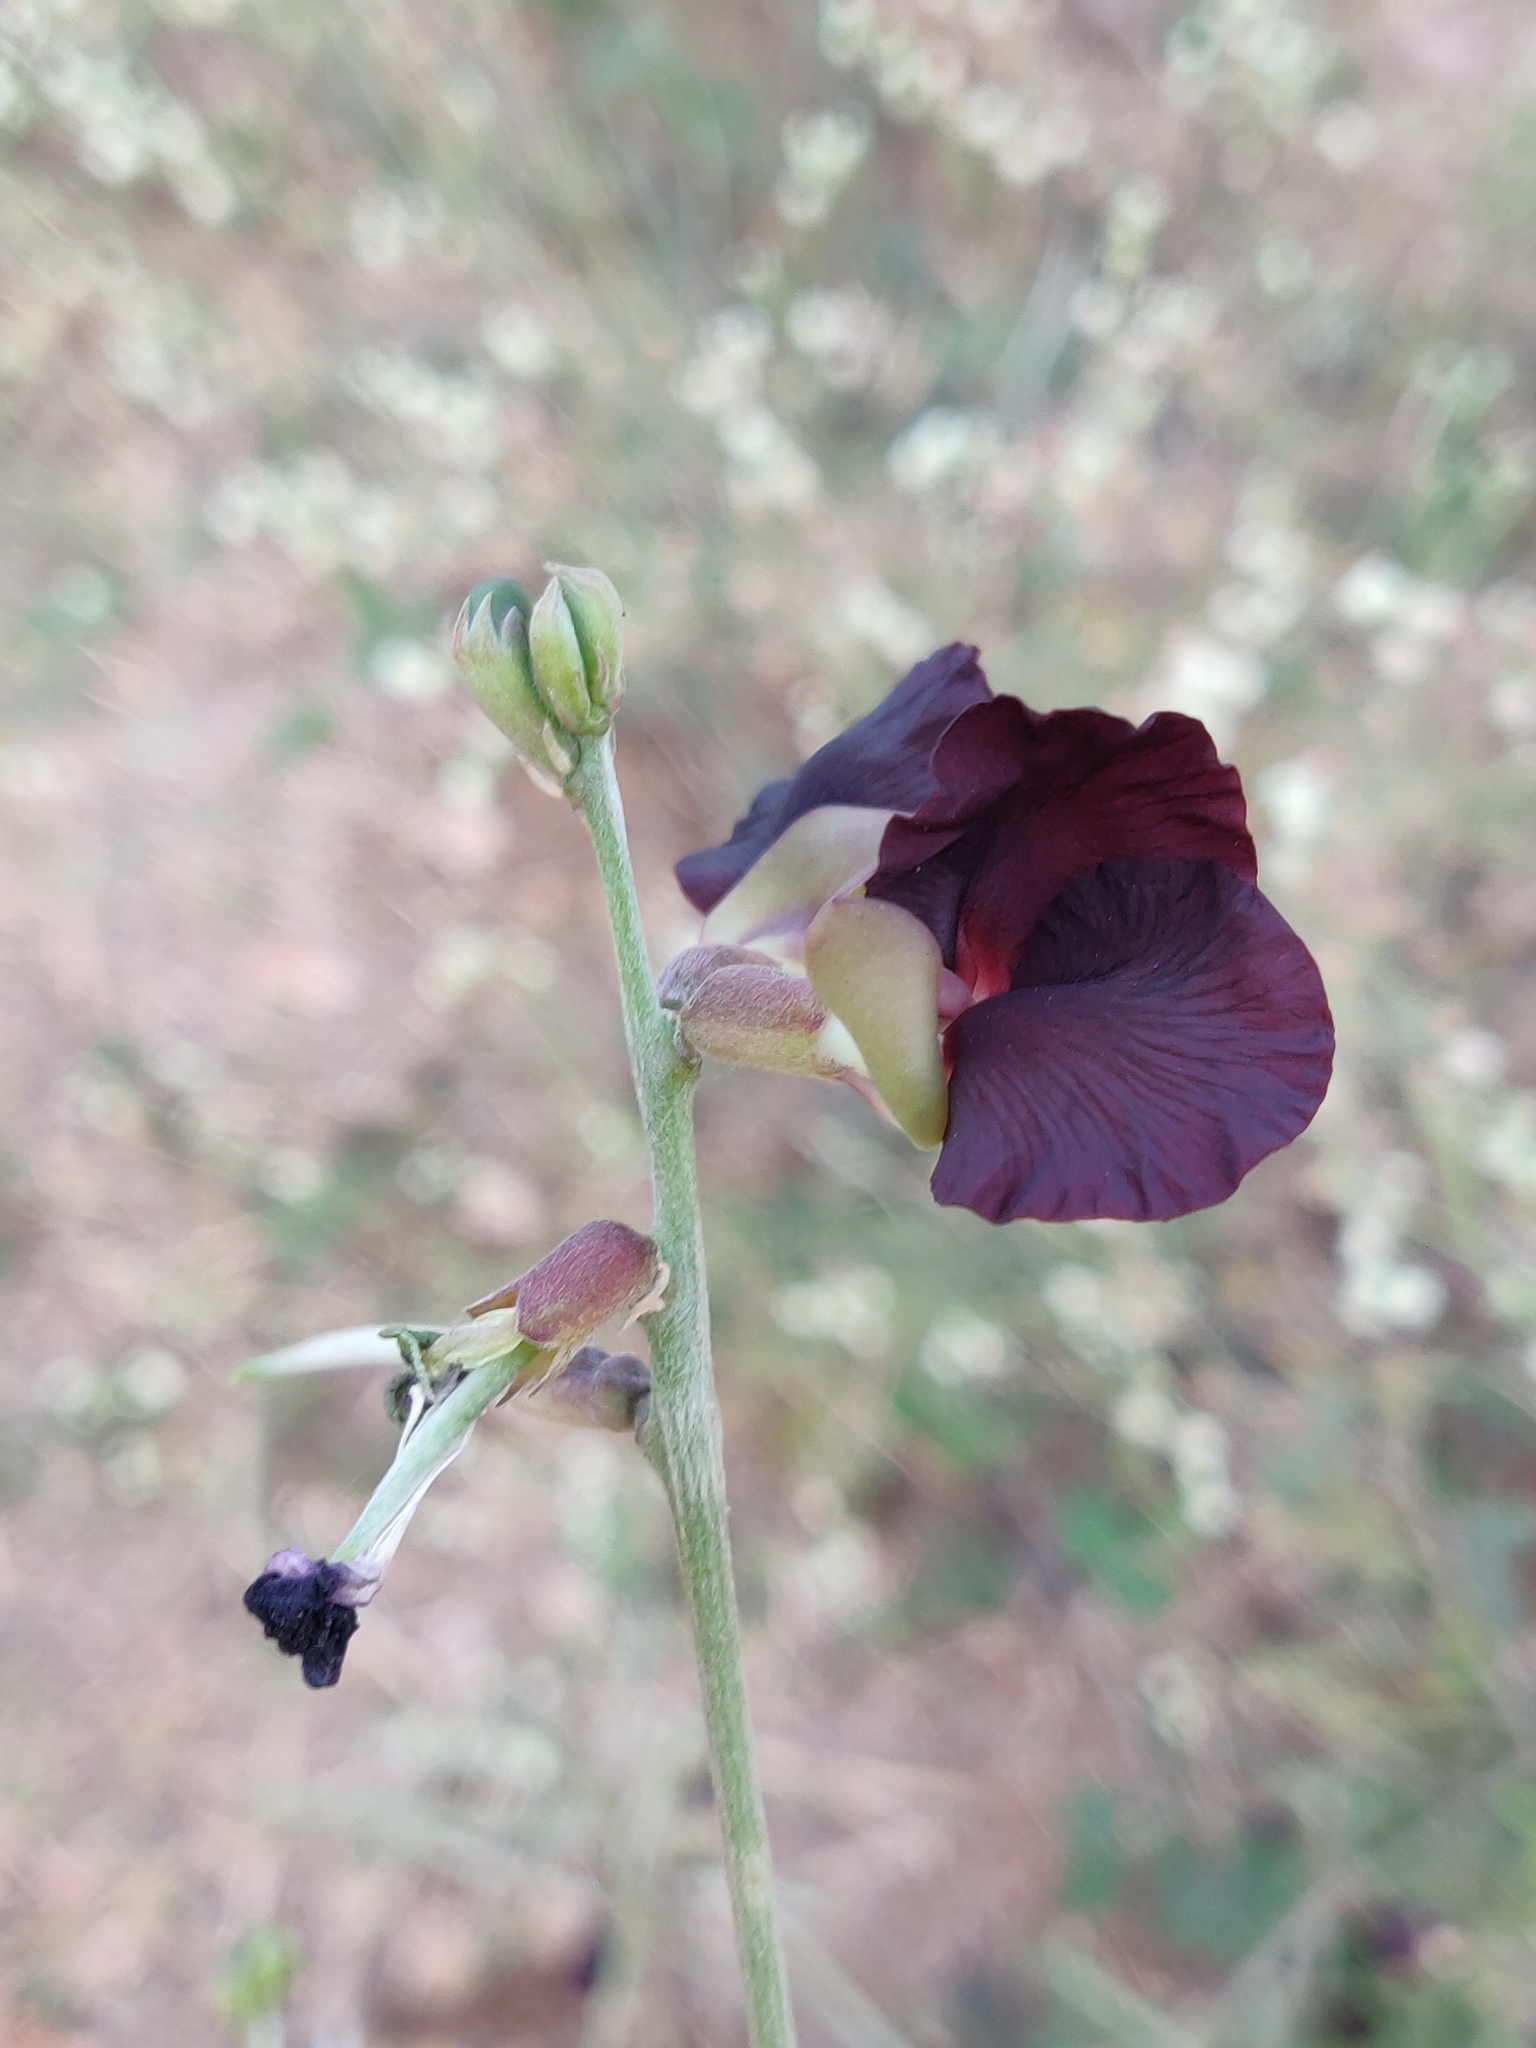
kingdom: Plantae
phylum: Tracheophyta
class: Magnoliopsida
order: Fabales
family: Fabaceae
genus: Macroptilium
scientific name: Macroptilium atropurpureum
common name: Purple bushbean
